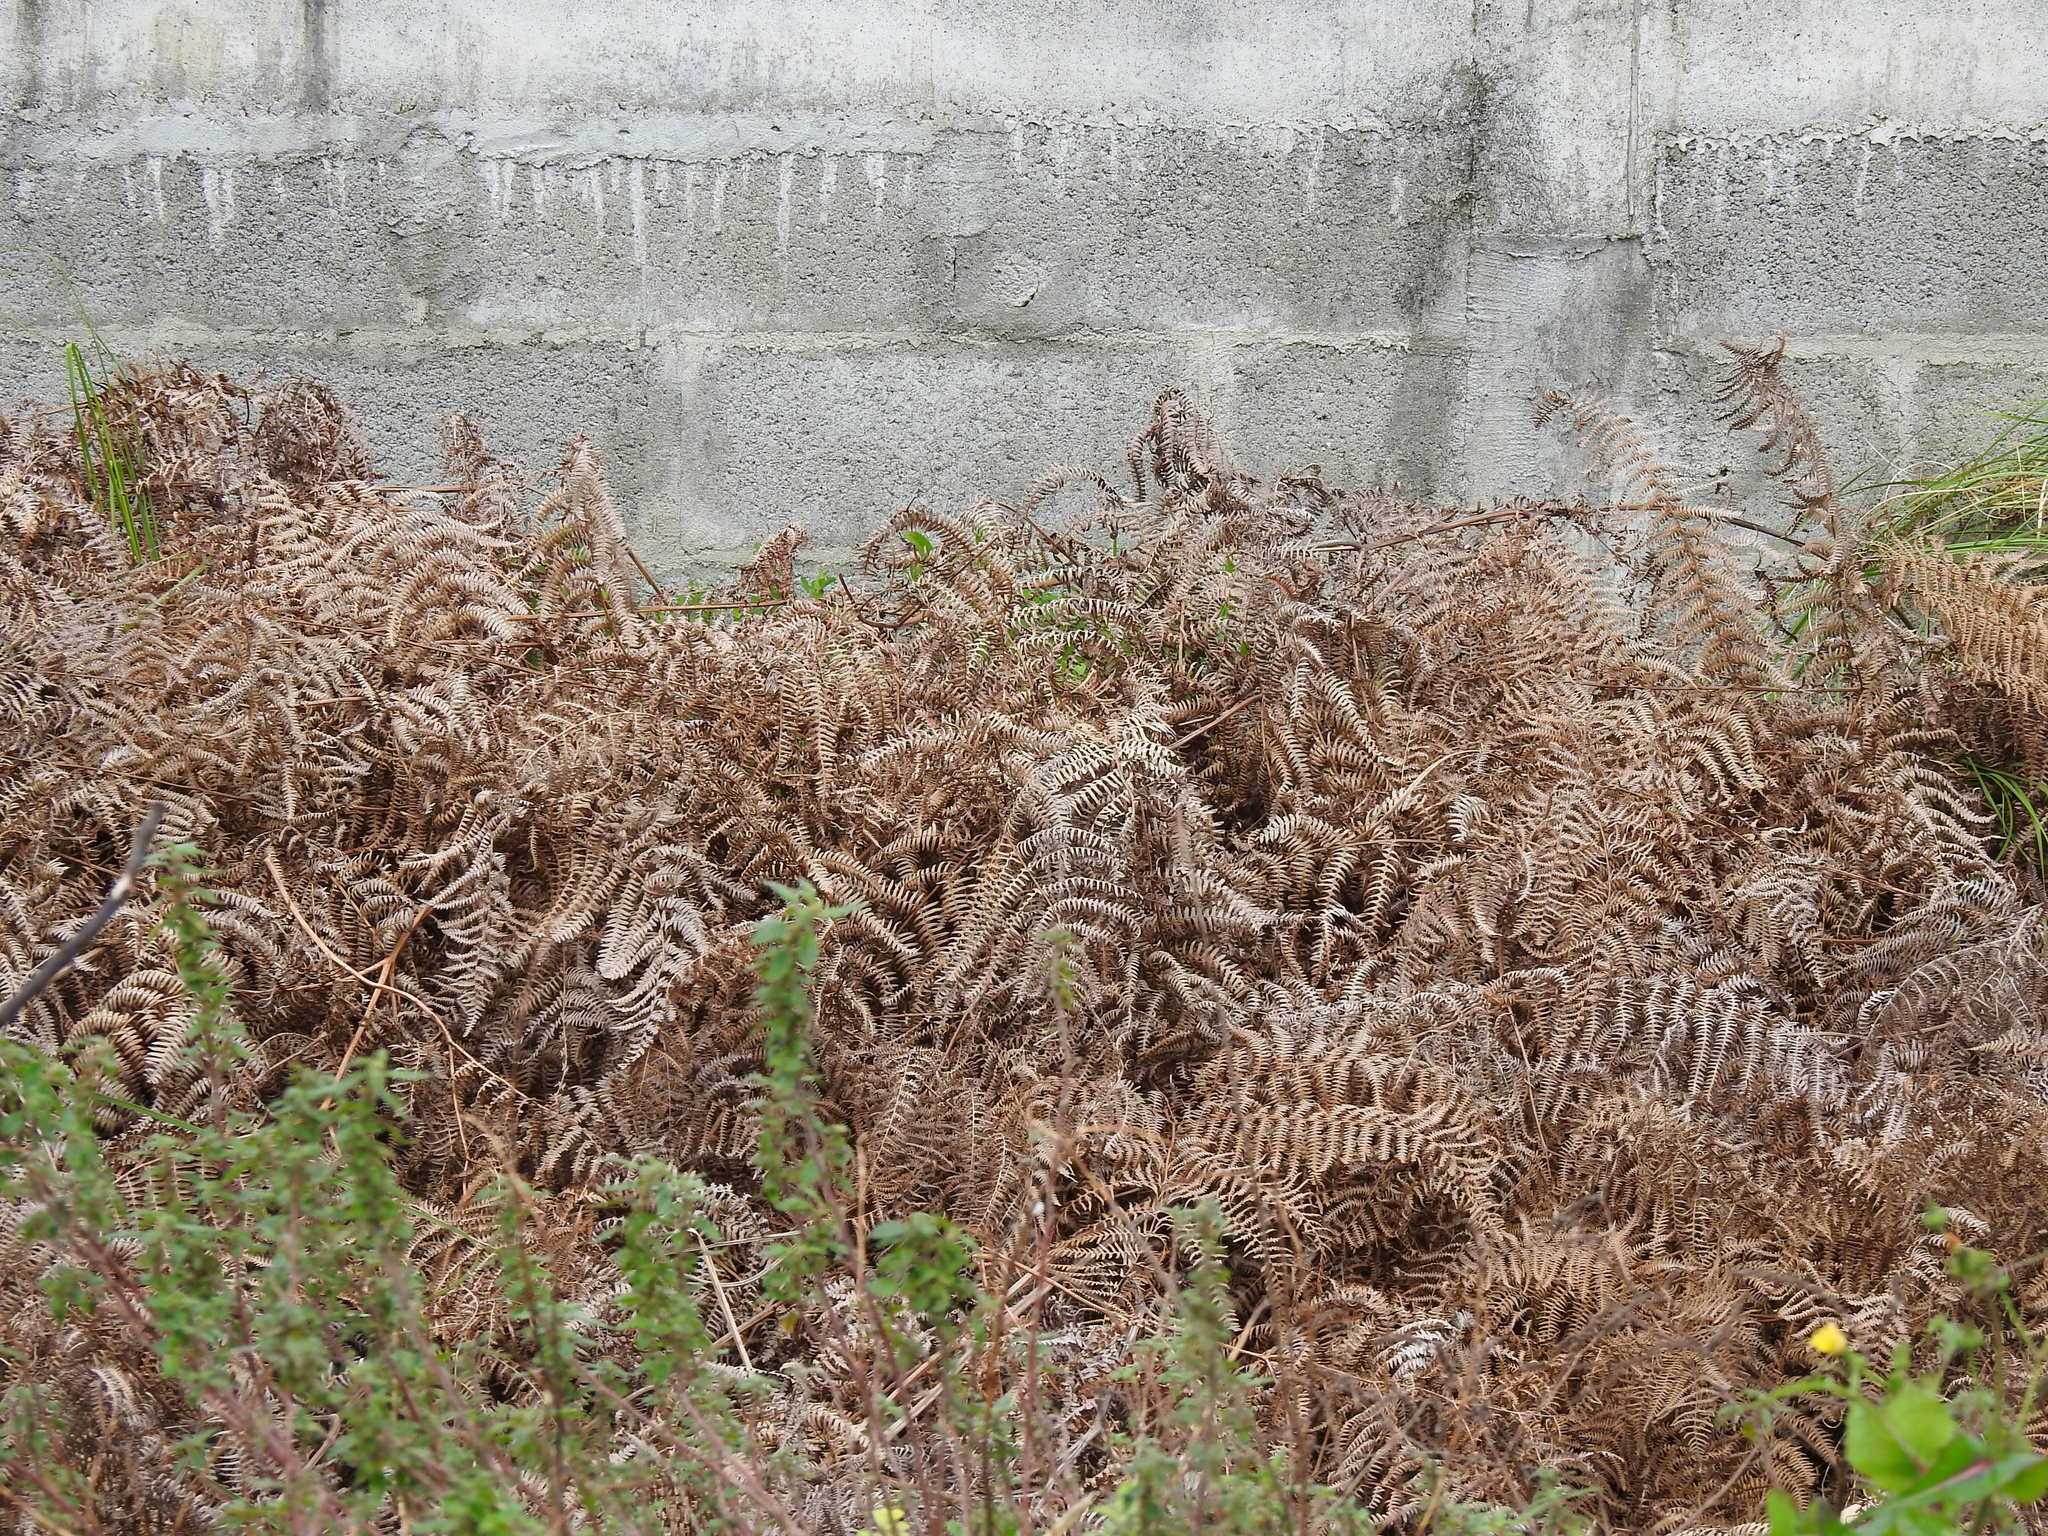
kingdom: Plantae
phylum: Tracheophyta
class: Polypodiopsida
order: Polypodiales
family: Dennstaedtiaceae
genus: Pteridium
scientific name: Pteridium aquilinum
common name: Bracken
